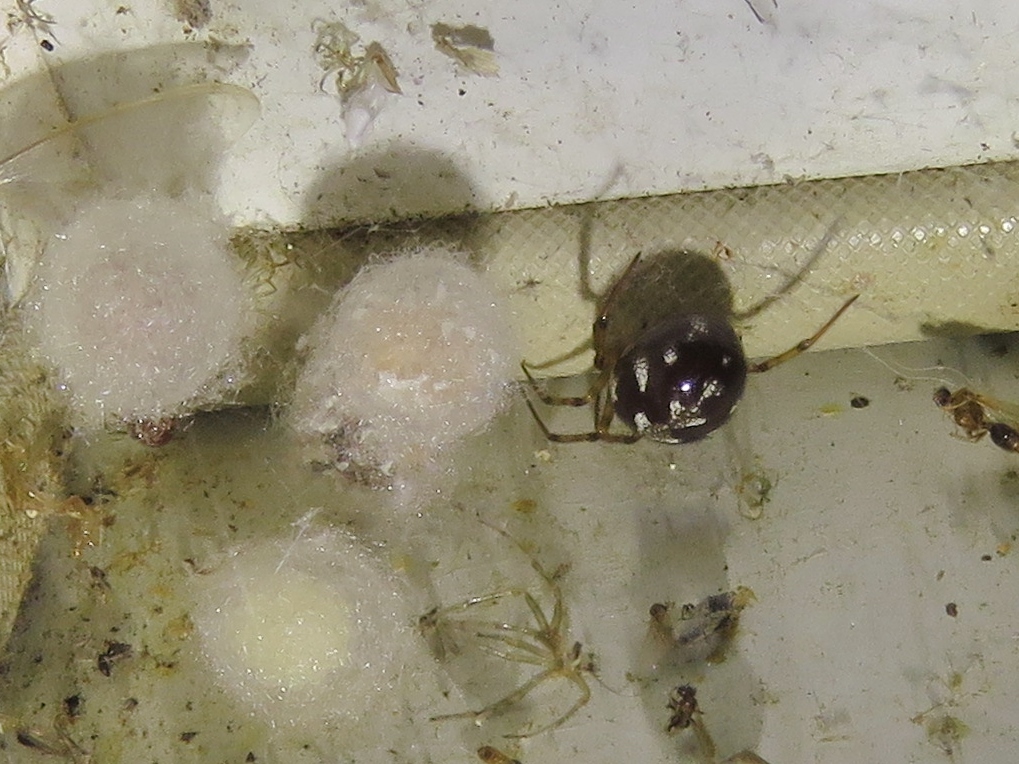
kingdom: Animalia
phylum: Arthropoda
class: Arachnida
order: Araneae
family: Theridiidae
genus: Steatoda
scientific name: Steatoda triangulosa
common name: Triangulate bud spider
